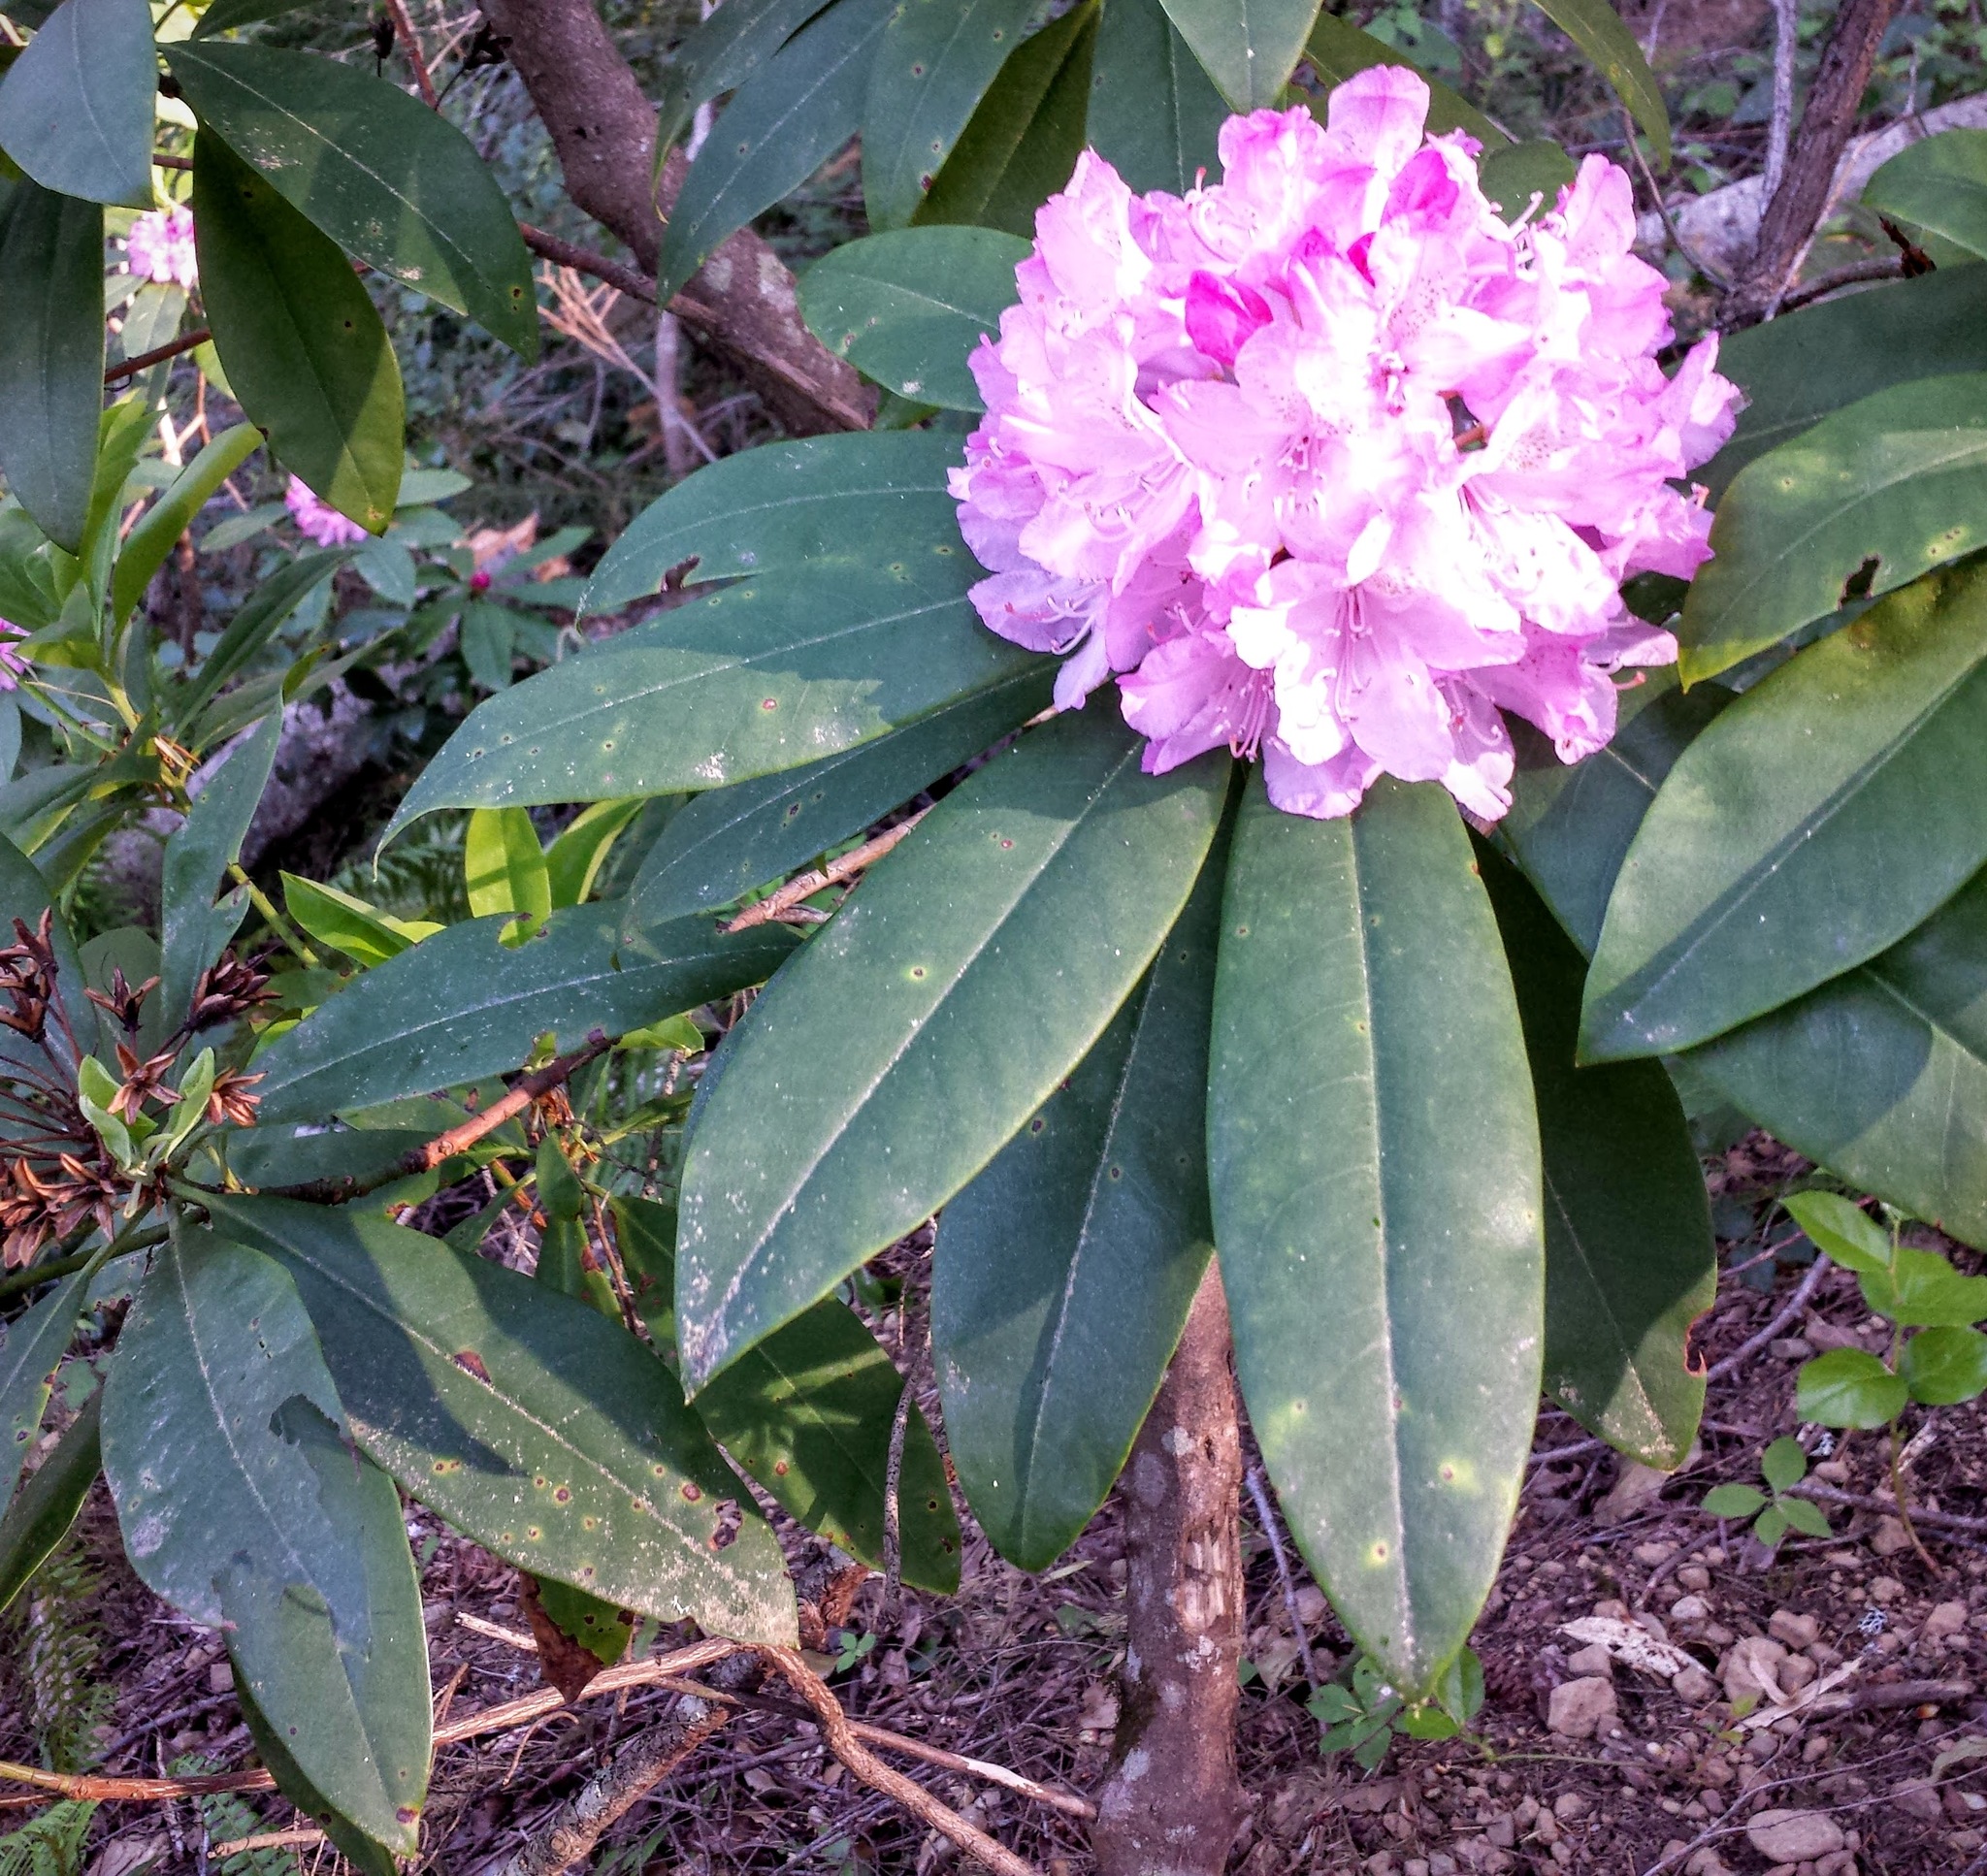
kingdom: Plantae
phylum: Tracheophyta
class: Magnoliopsida
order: Ericales
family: Ericaceae
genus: Rhododendron
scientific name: Rhododendron macrophyllum
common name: California rose bay
